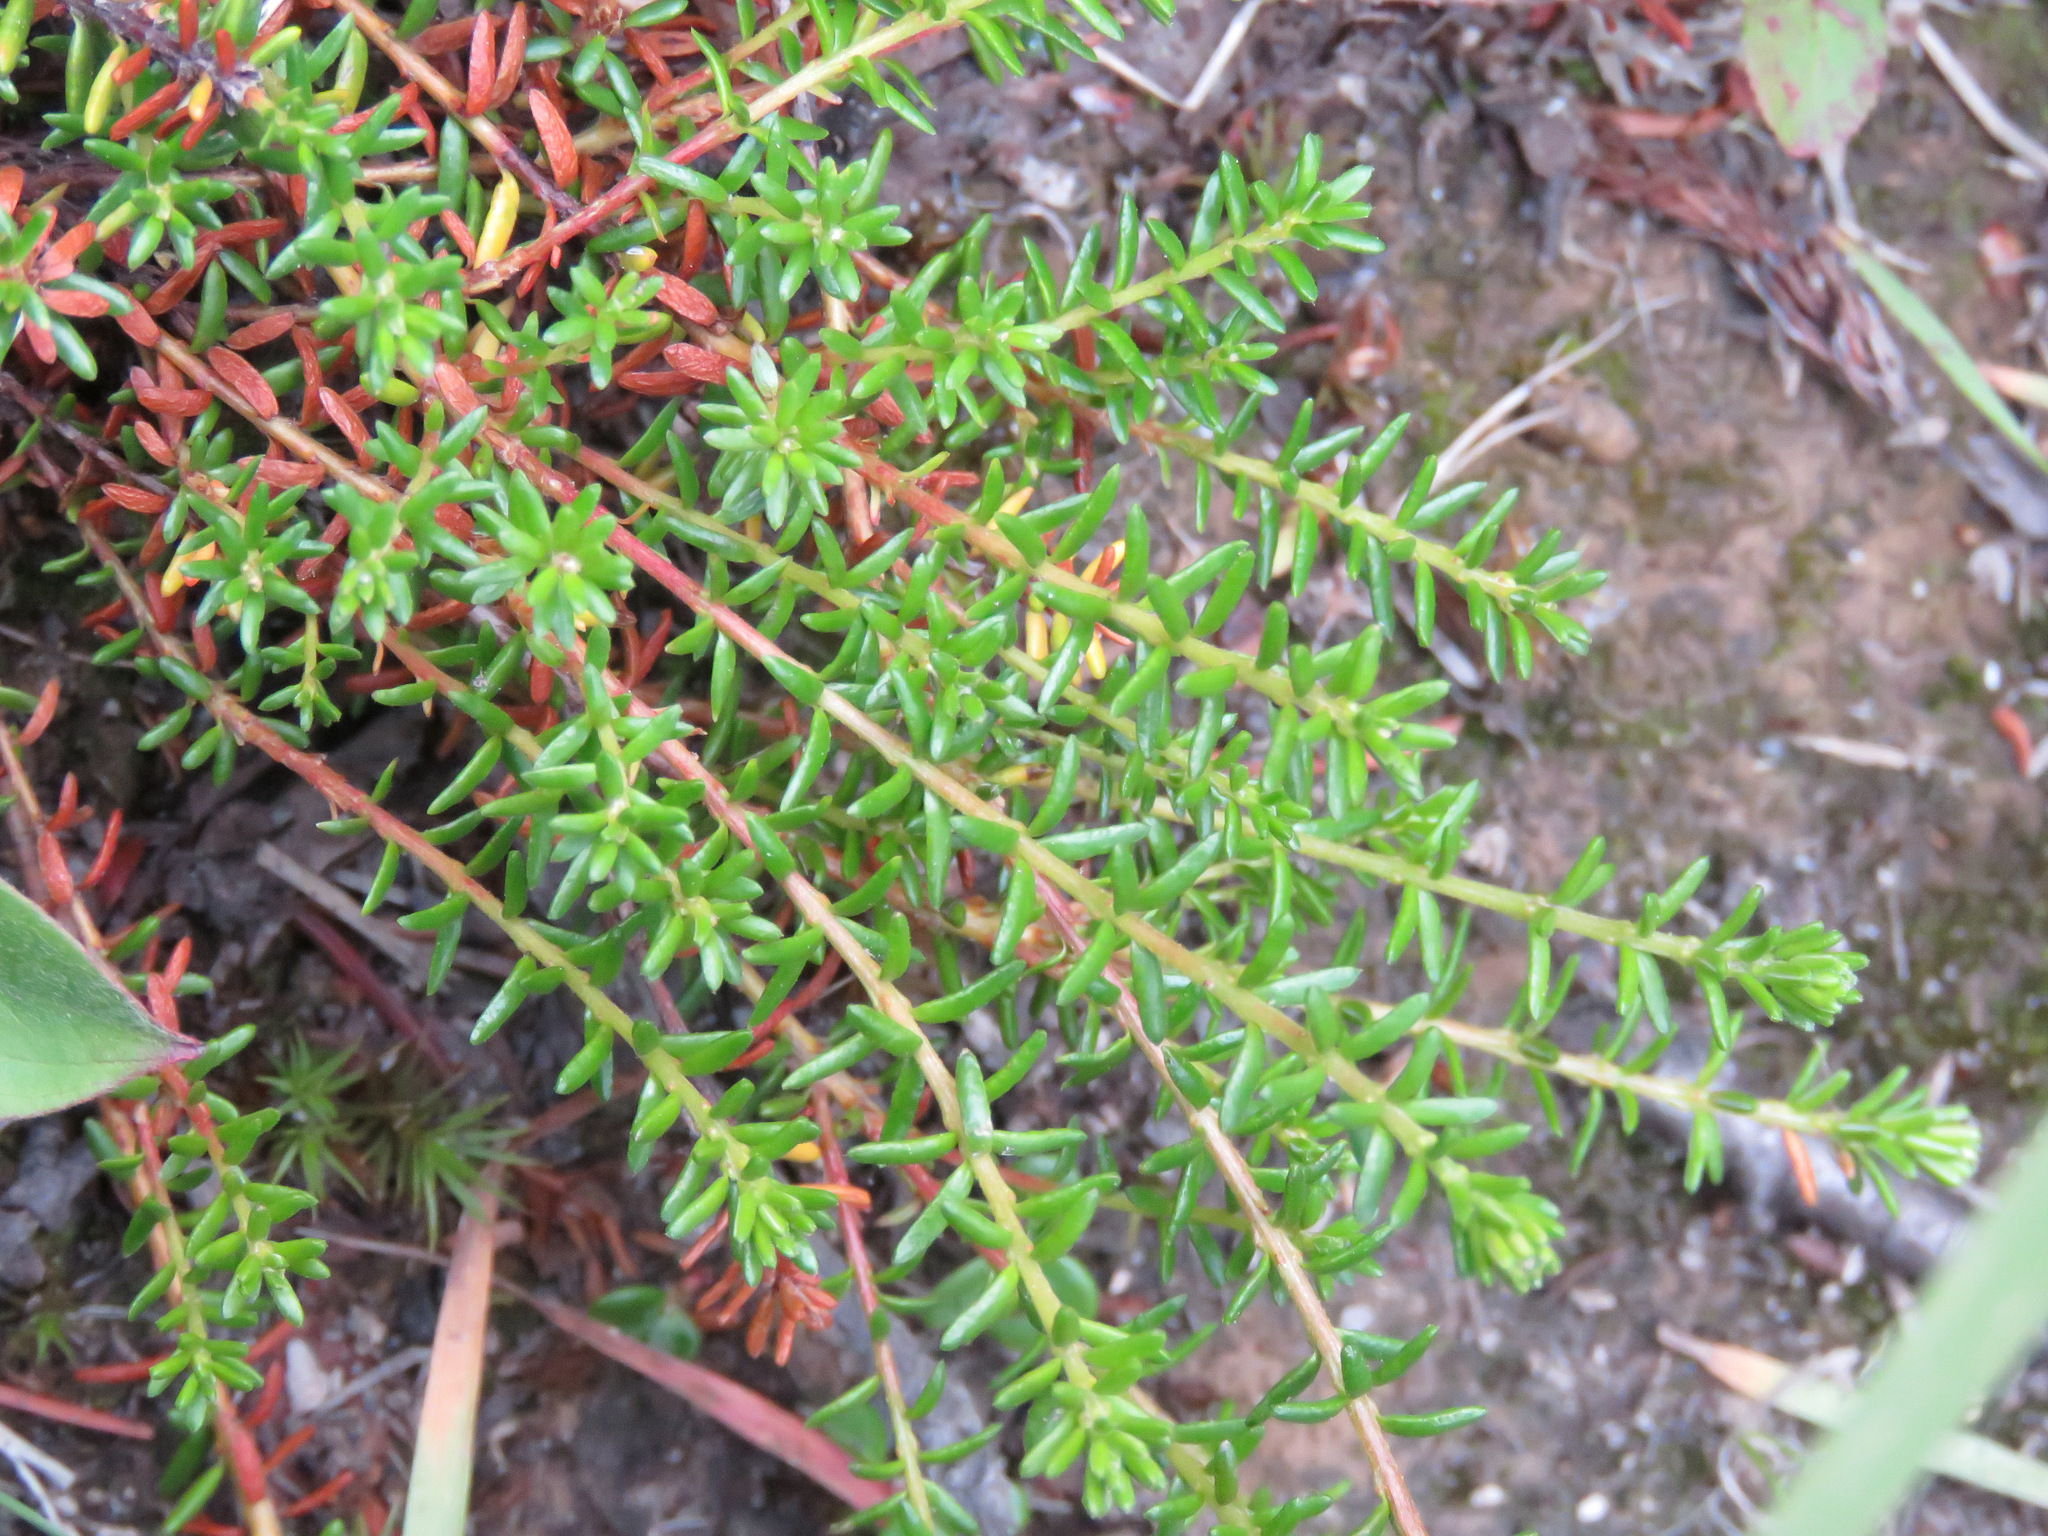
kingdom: Plantae
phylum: Tracheophyta
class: Magnoliopsida
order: Ericales
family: Ericaceae
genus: Empetrum
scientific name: Empetrum nigrum
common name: Black crowberry
